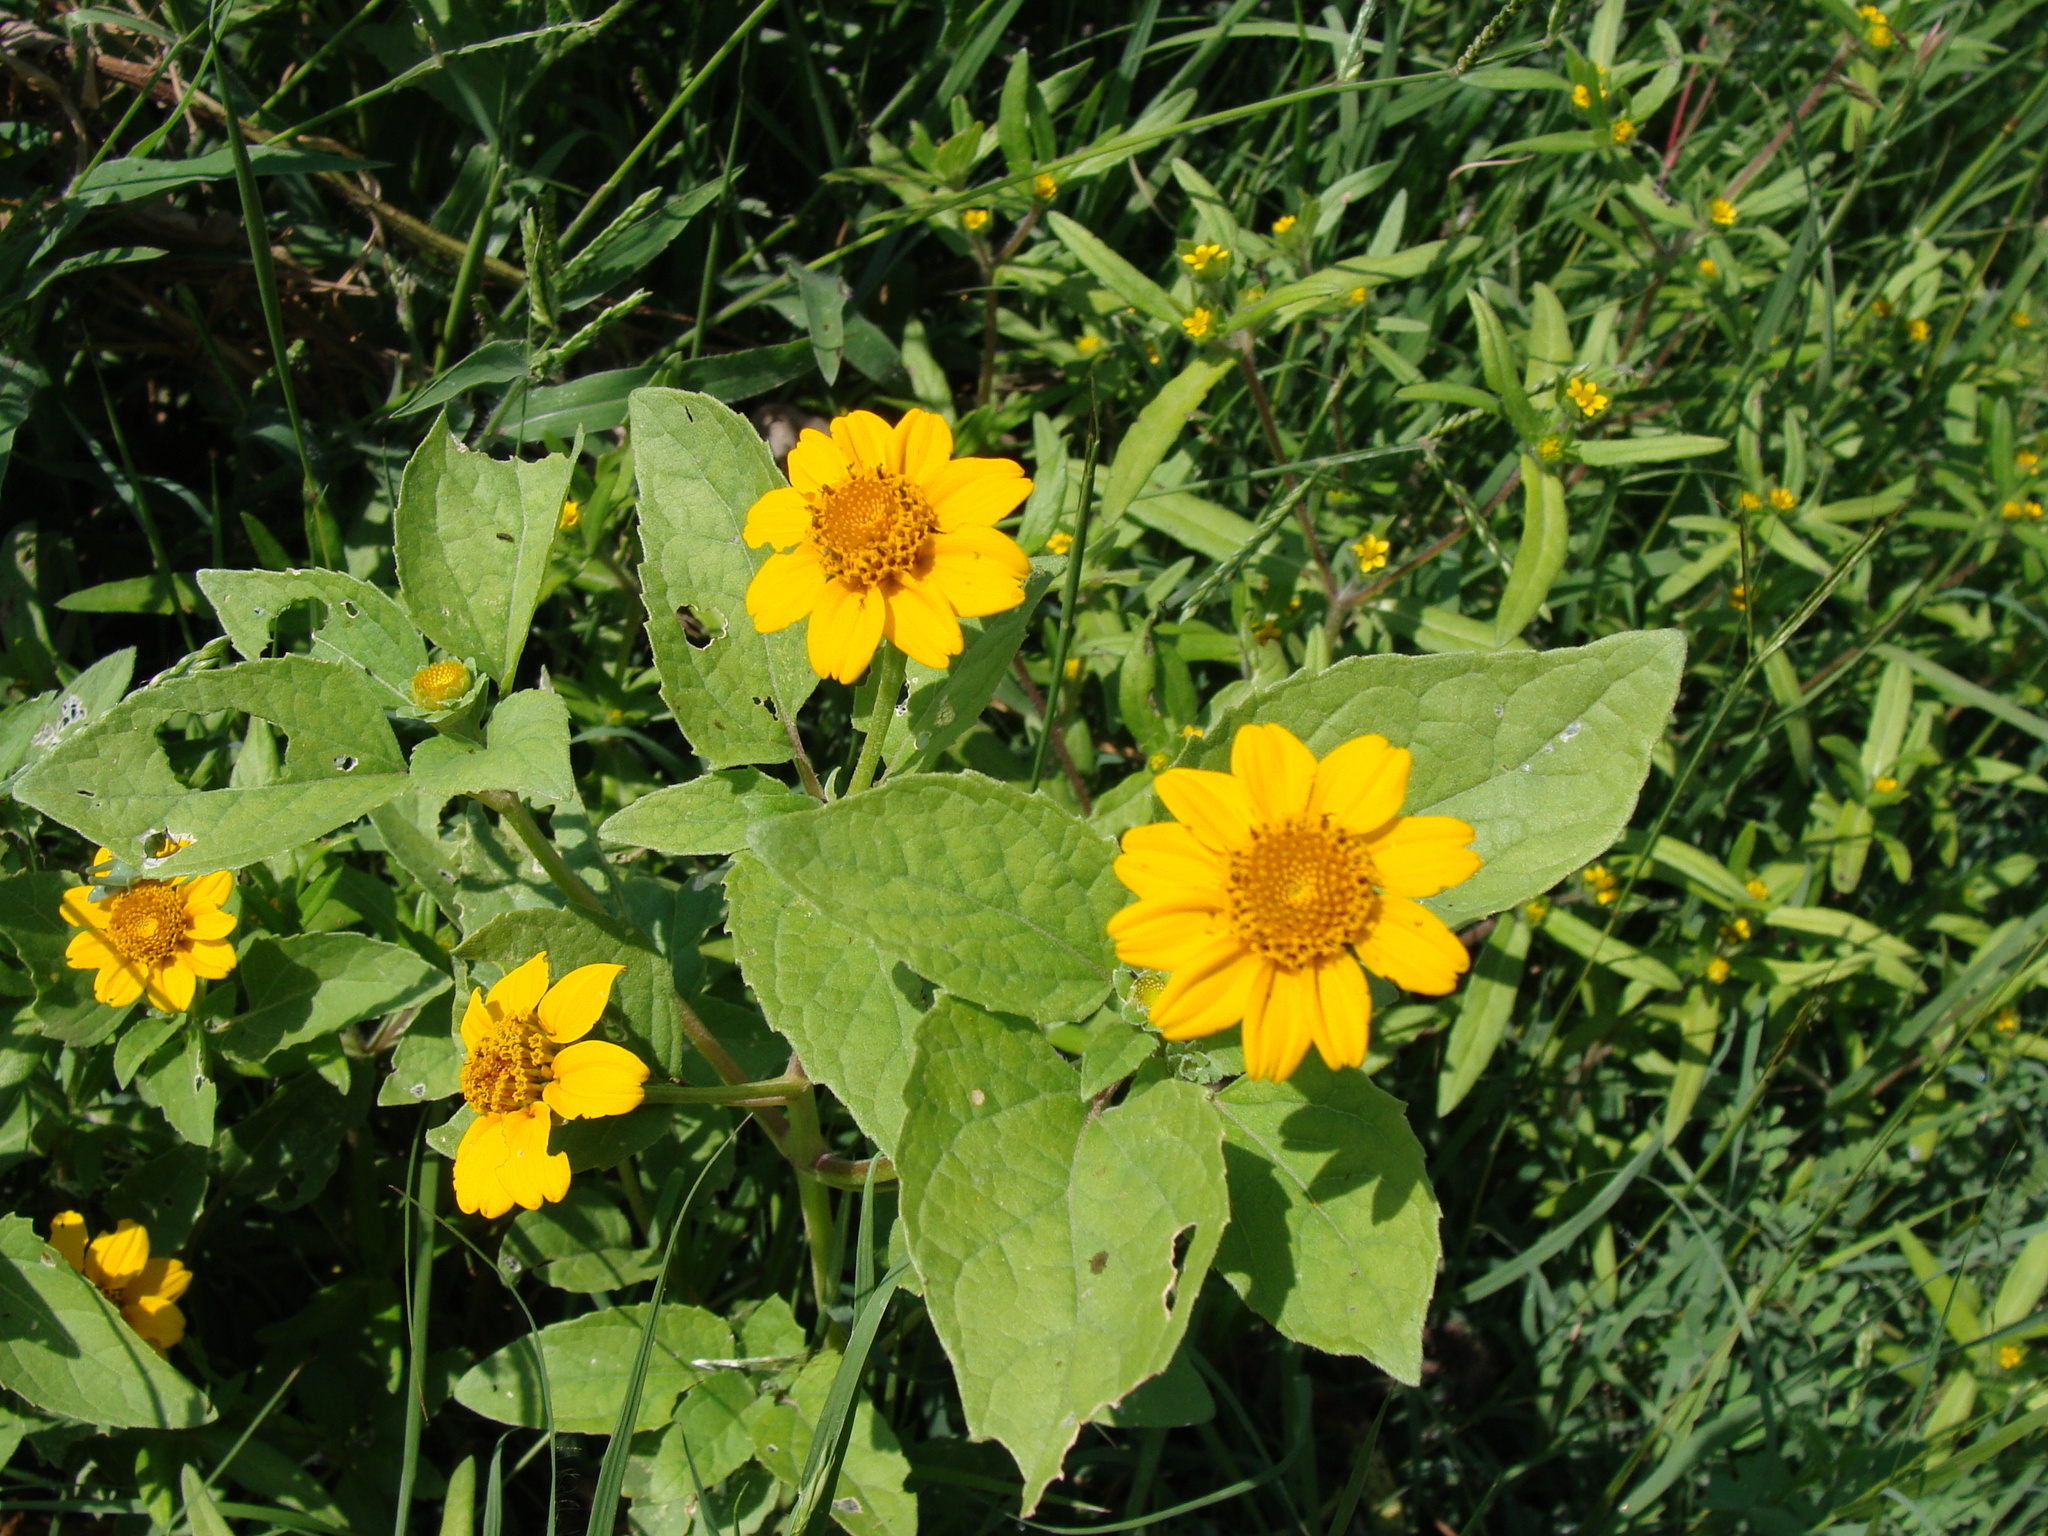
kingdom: Plantae
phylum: Tracheophyta
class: Magnoliopsida
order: Asterales
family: Asteraceae
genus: Heliopsis
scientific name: Heliopsis annua
